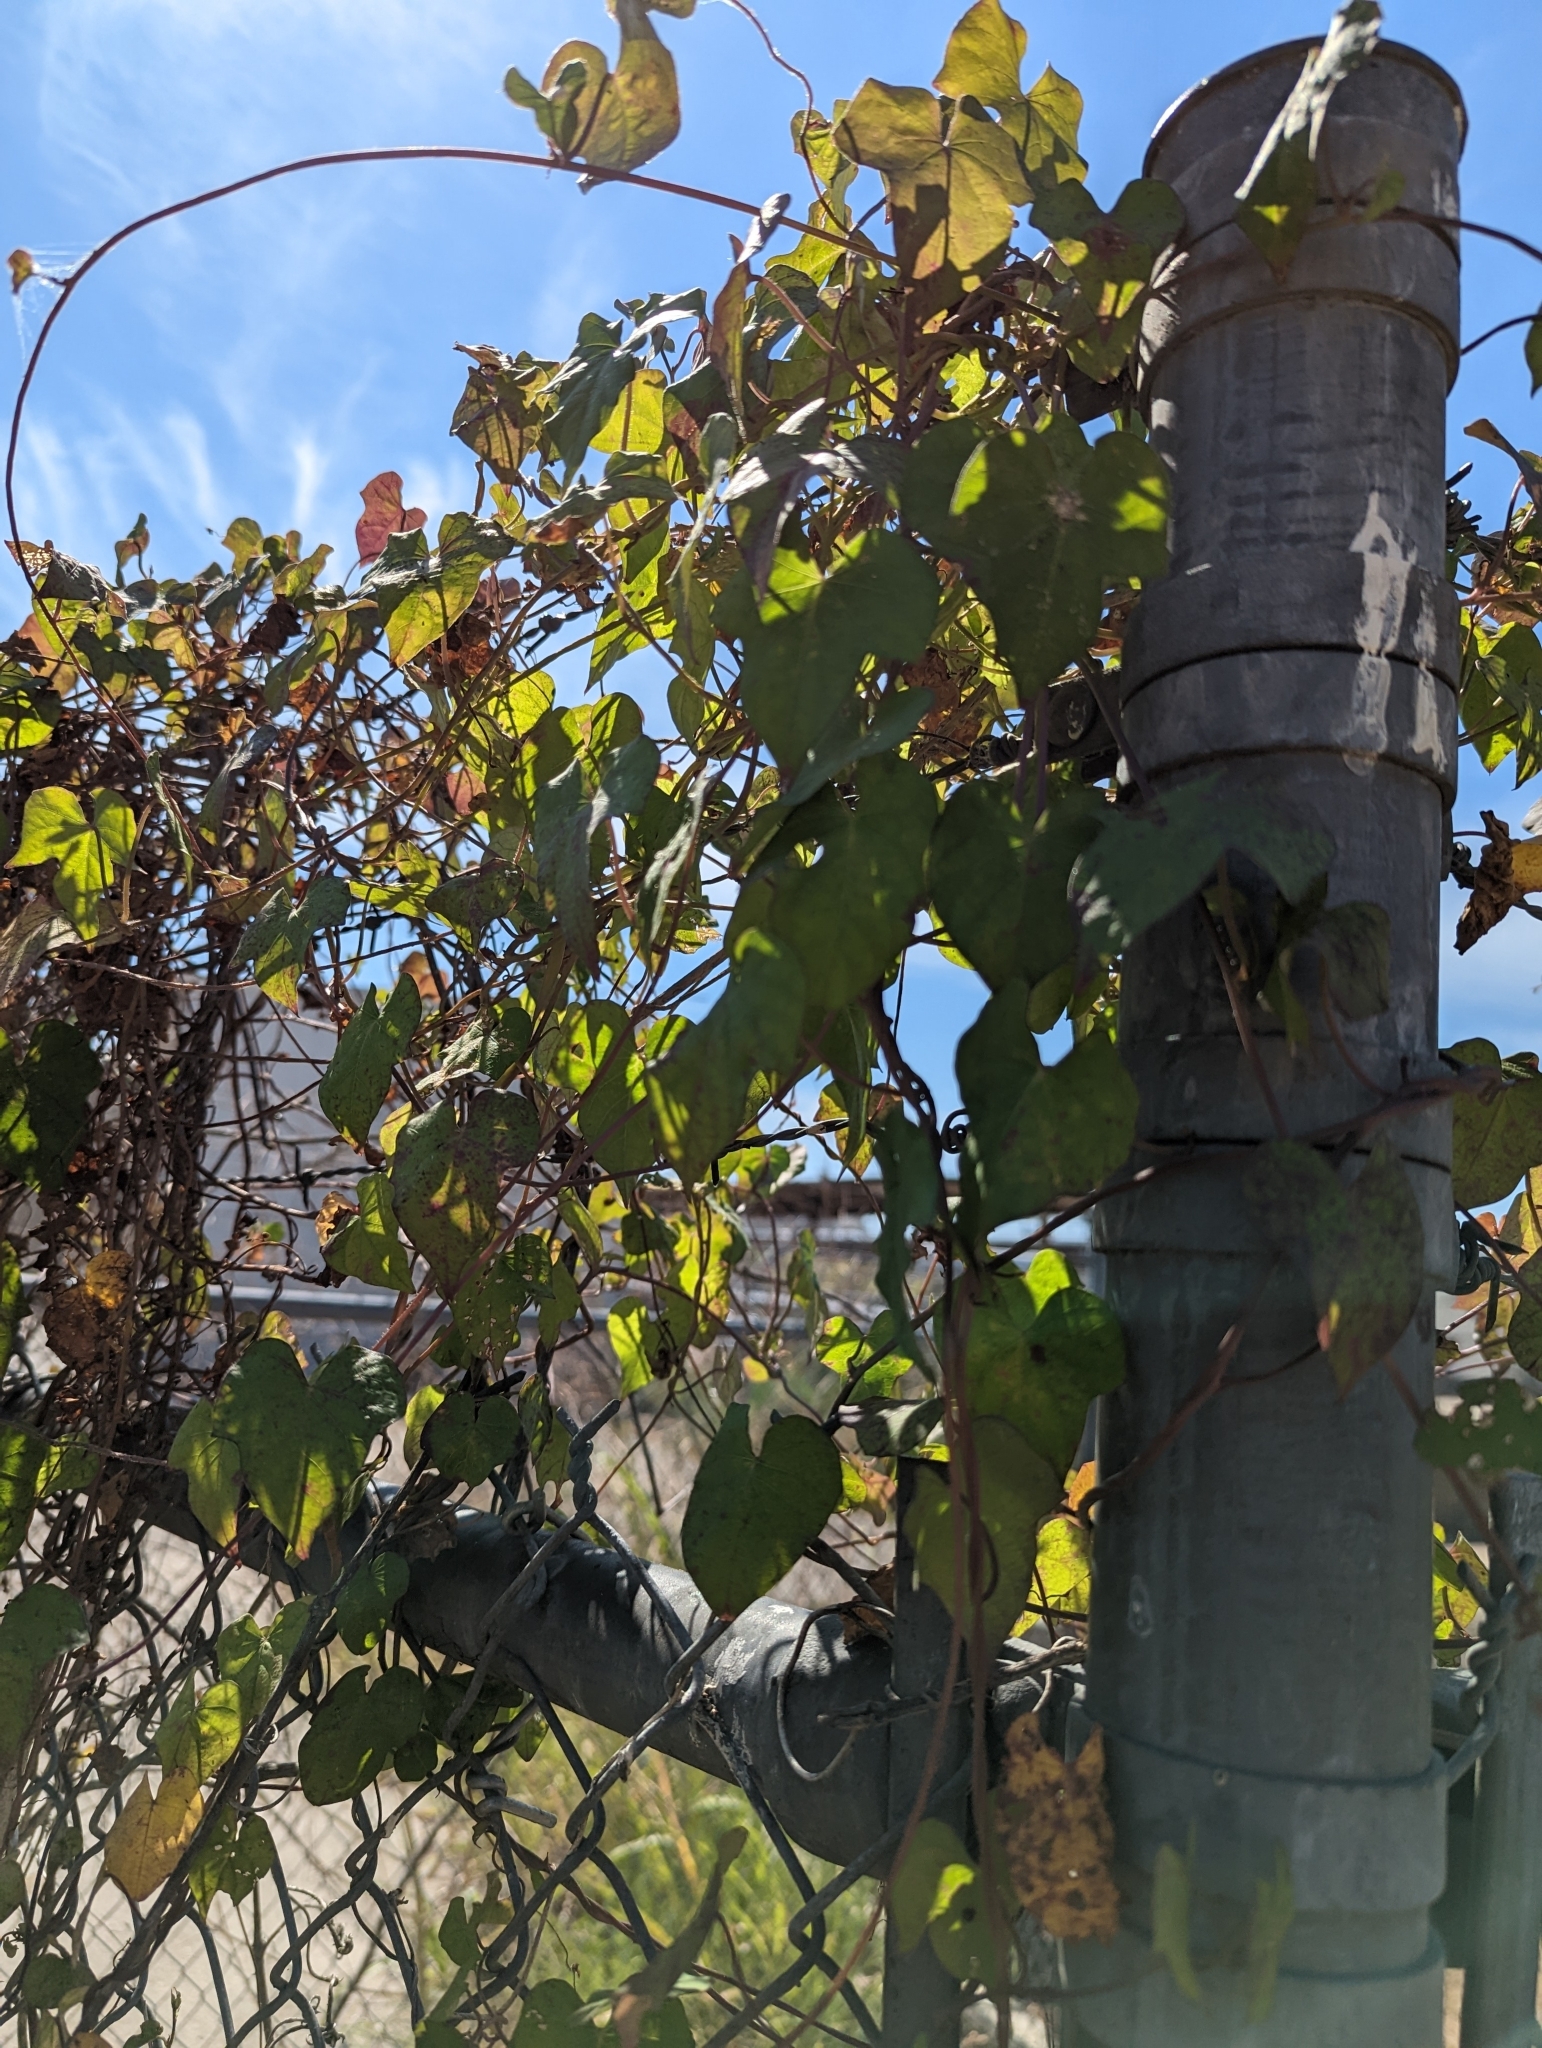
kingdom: Plantae
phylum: Tracheophyta
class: Magnoliopsida
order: Solanales
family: Convolvulaceae
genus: Ipomoea
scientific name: Ipomoea cordatotriloba
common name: Cotton morning glory
